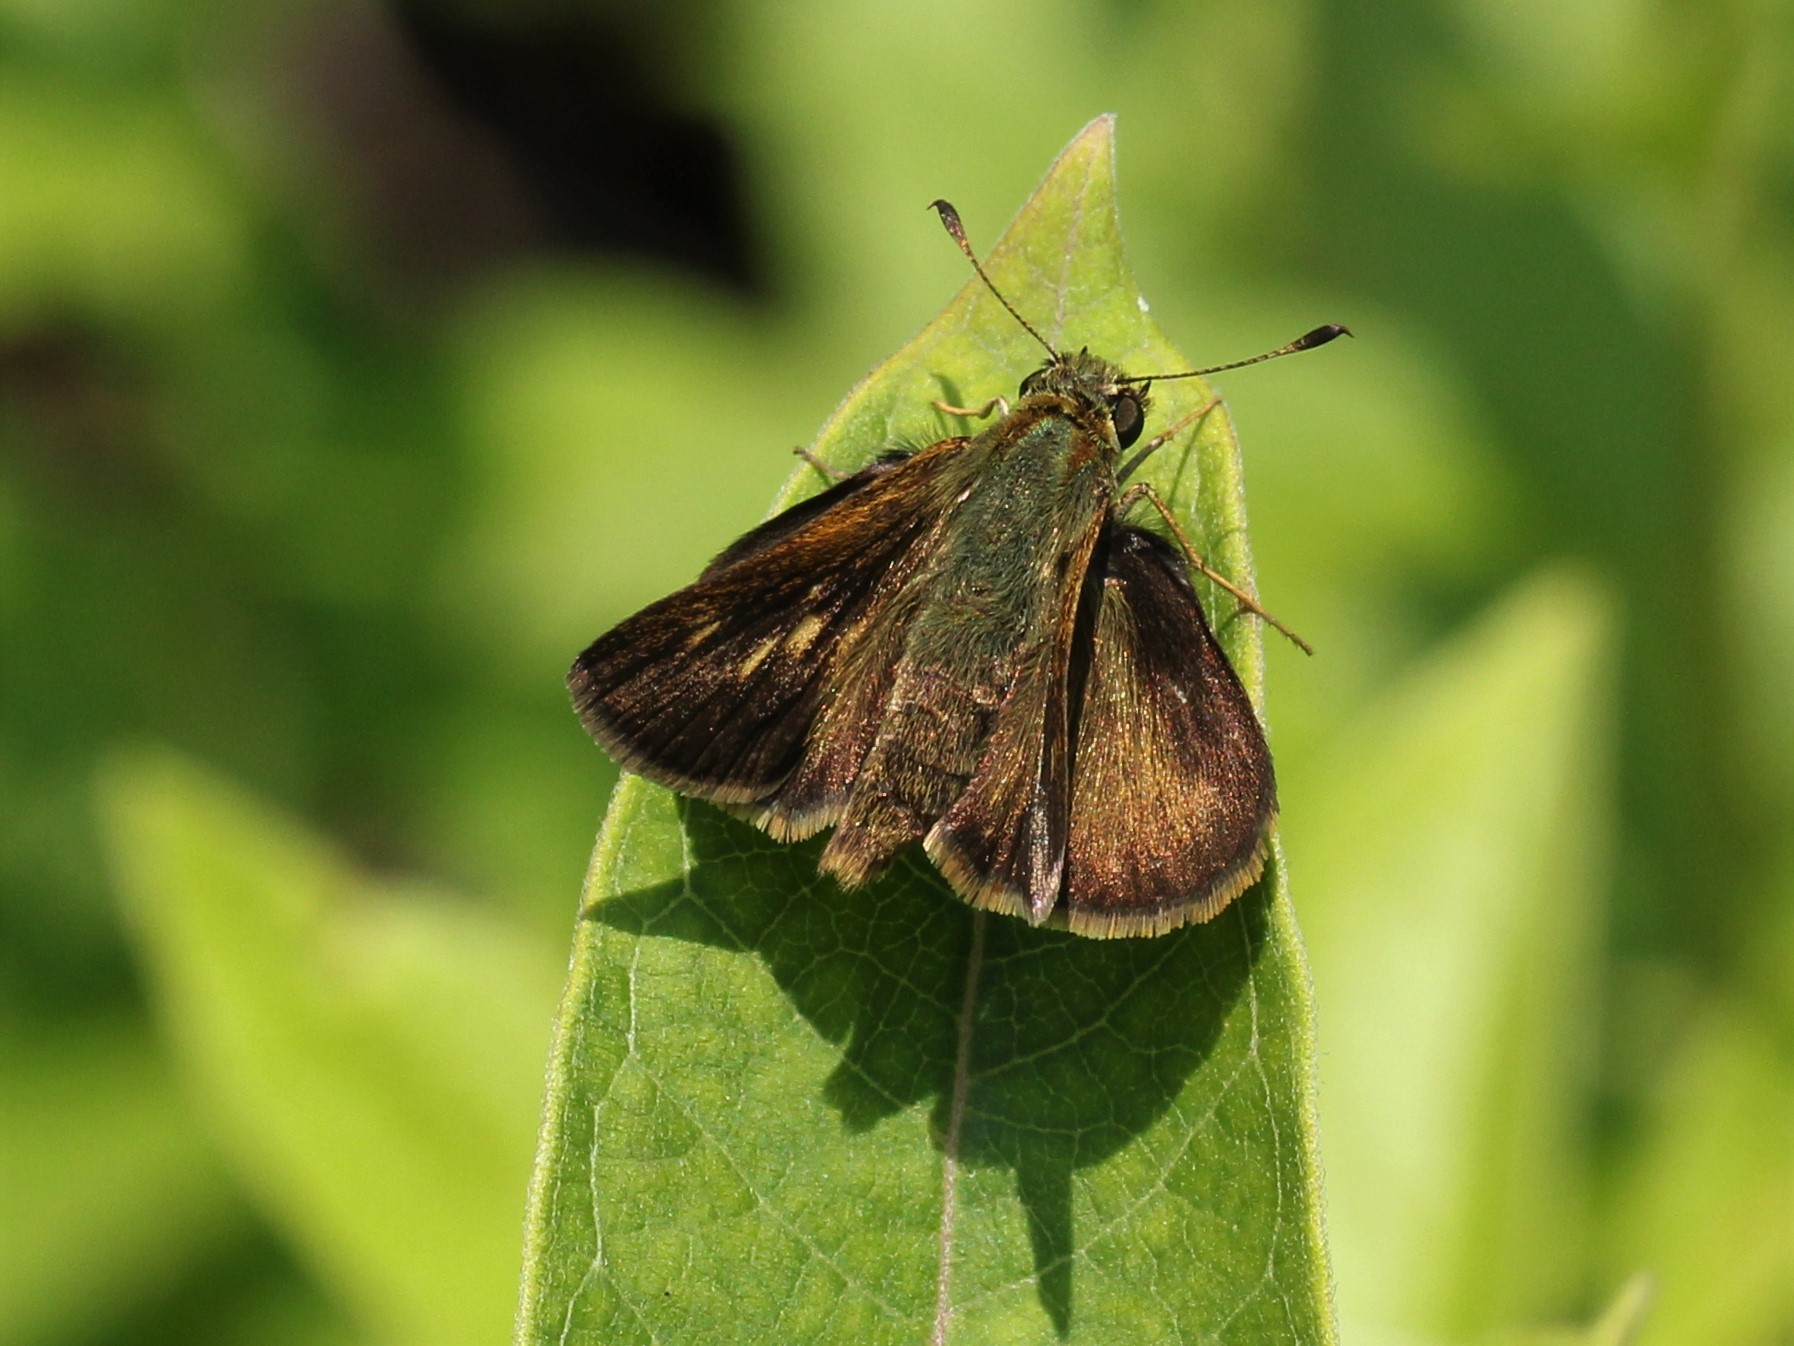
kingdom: Animalia
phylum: Arthropoda
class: Insecta
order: Lepidoptera
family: Hesperiidae
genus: Polites
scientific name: Polites egeremet
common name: Northern broken-dash
